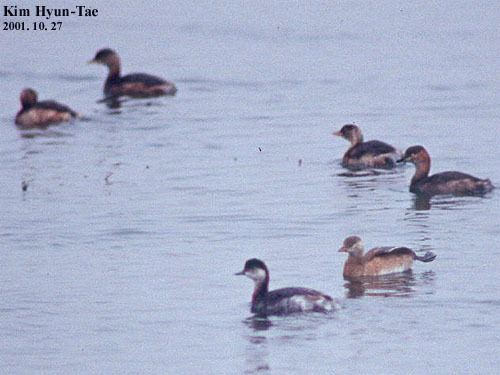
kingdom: Animalia
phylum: Chordata
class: Aves
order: Podicipediformes
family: Podicipedidae
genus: Podiceps
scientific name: Podiceps nigricollis
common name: Black-necked grebe
